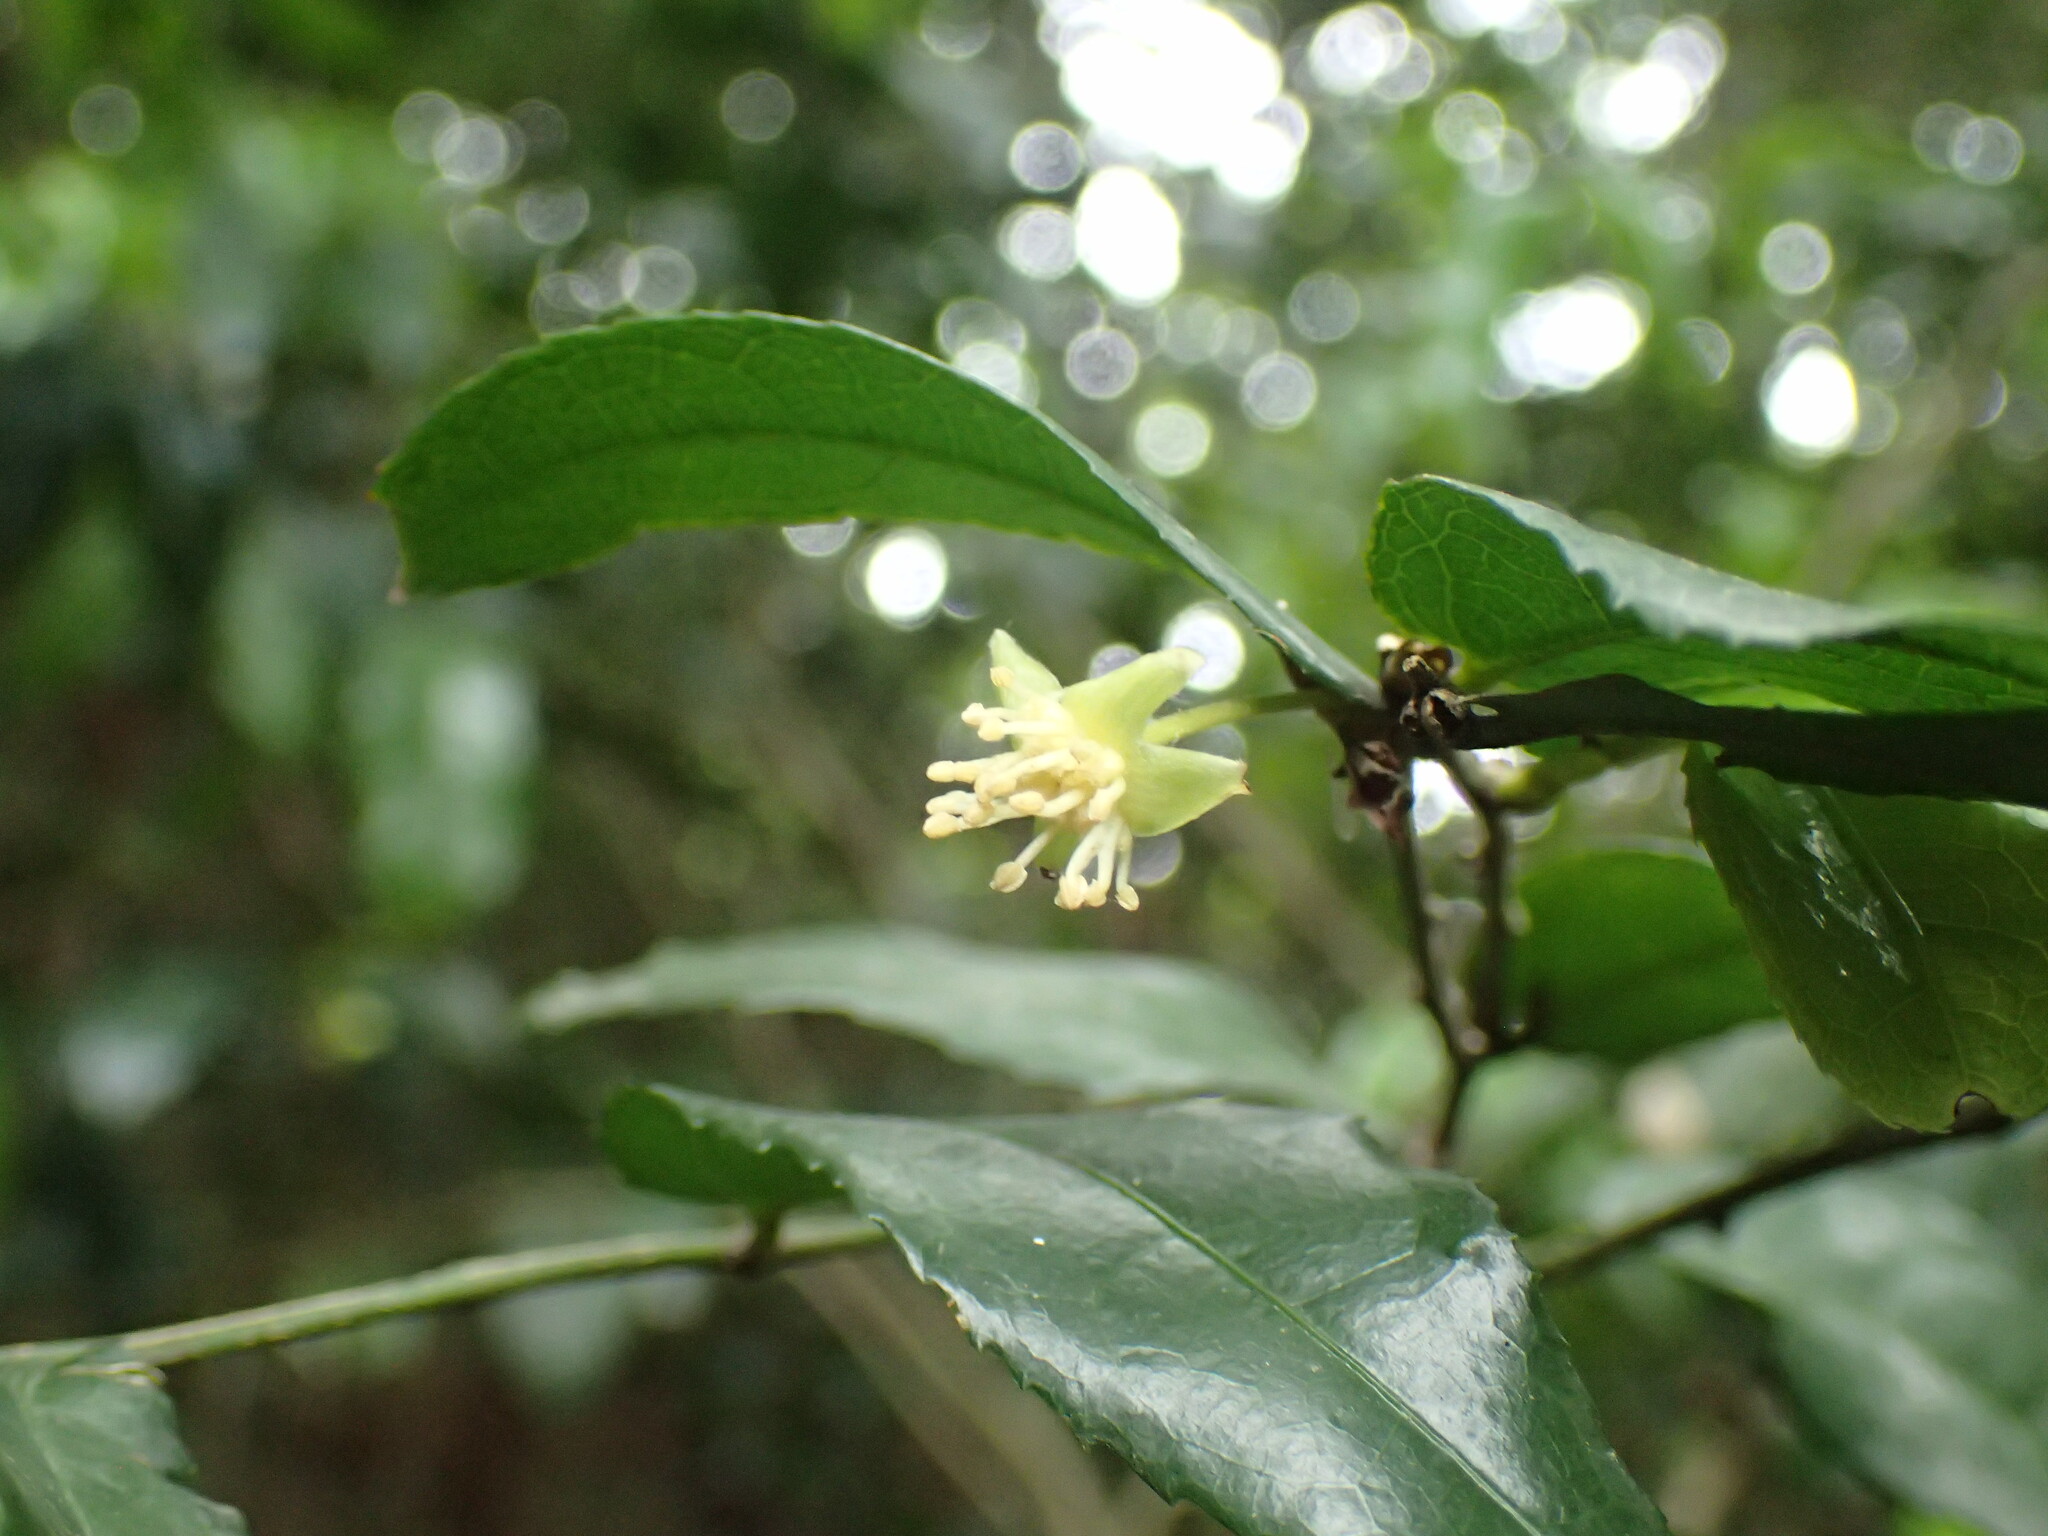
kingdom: Plantae
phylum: Tracheophyta
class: Magnoliopsida
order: Malpighiales
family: Putranjivaceae
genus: Drypetes
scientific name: Drypetes arguta
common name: Water ironplum
